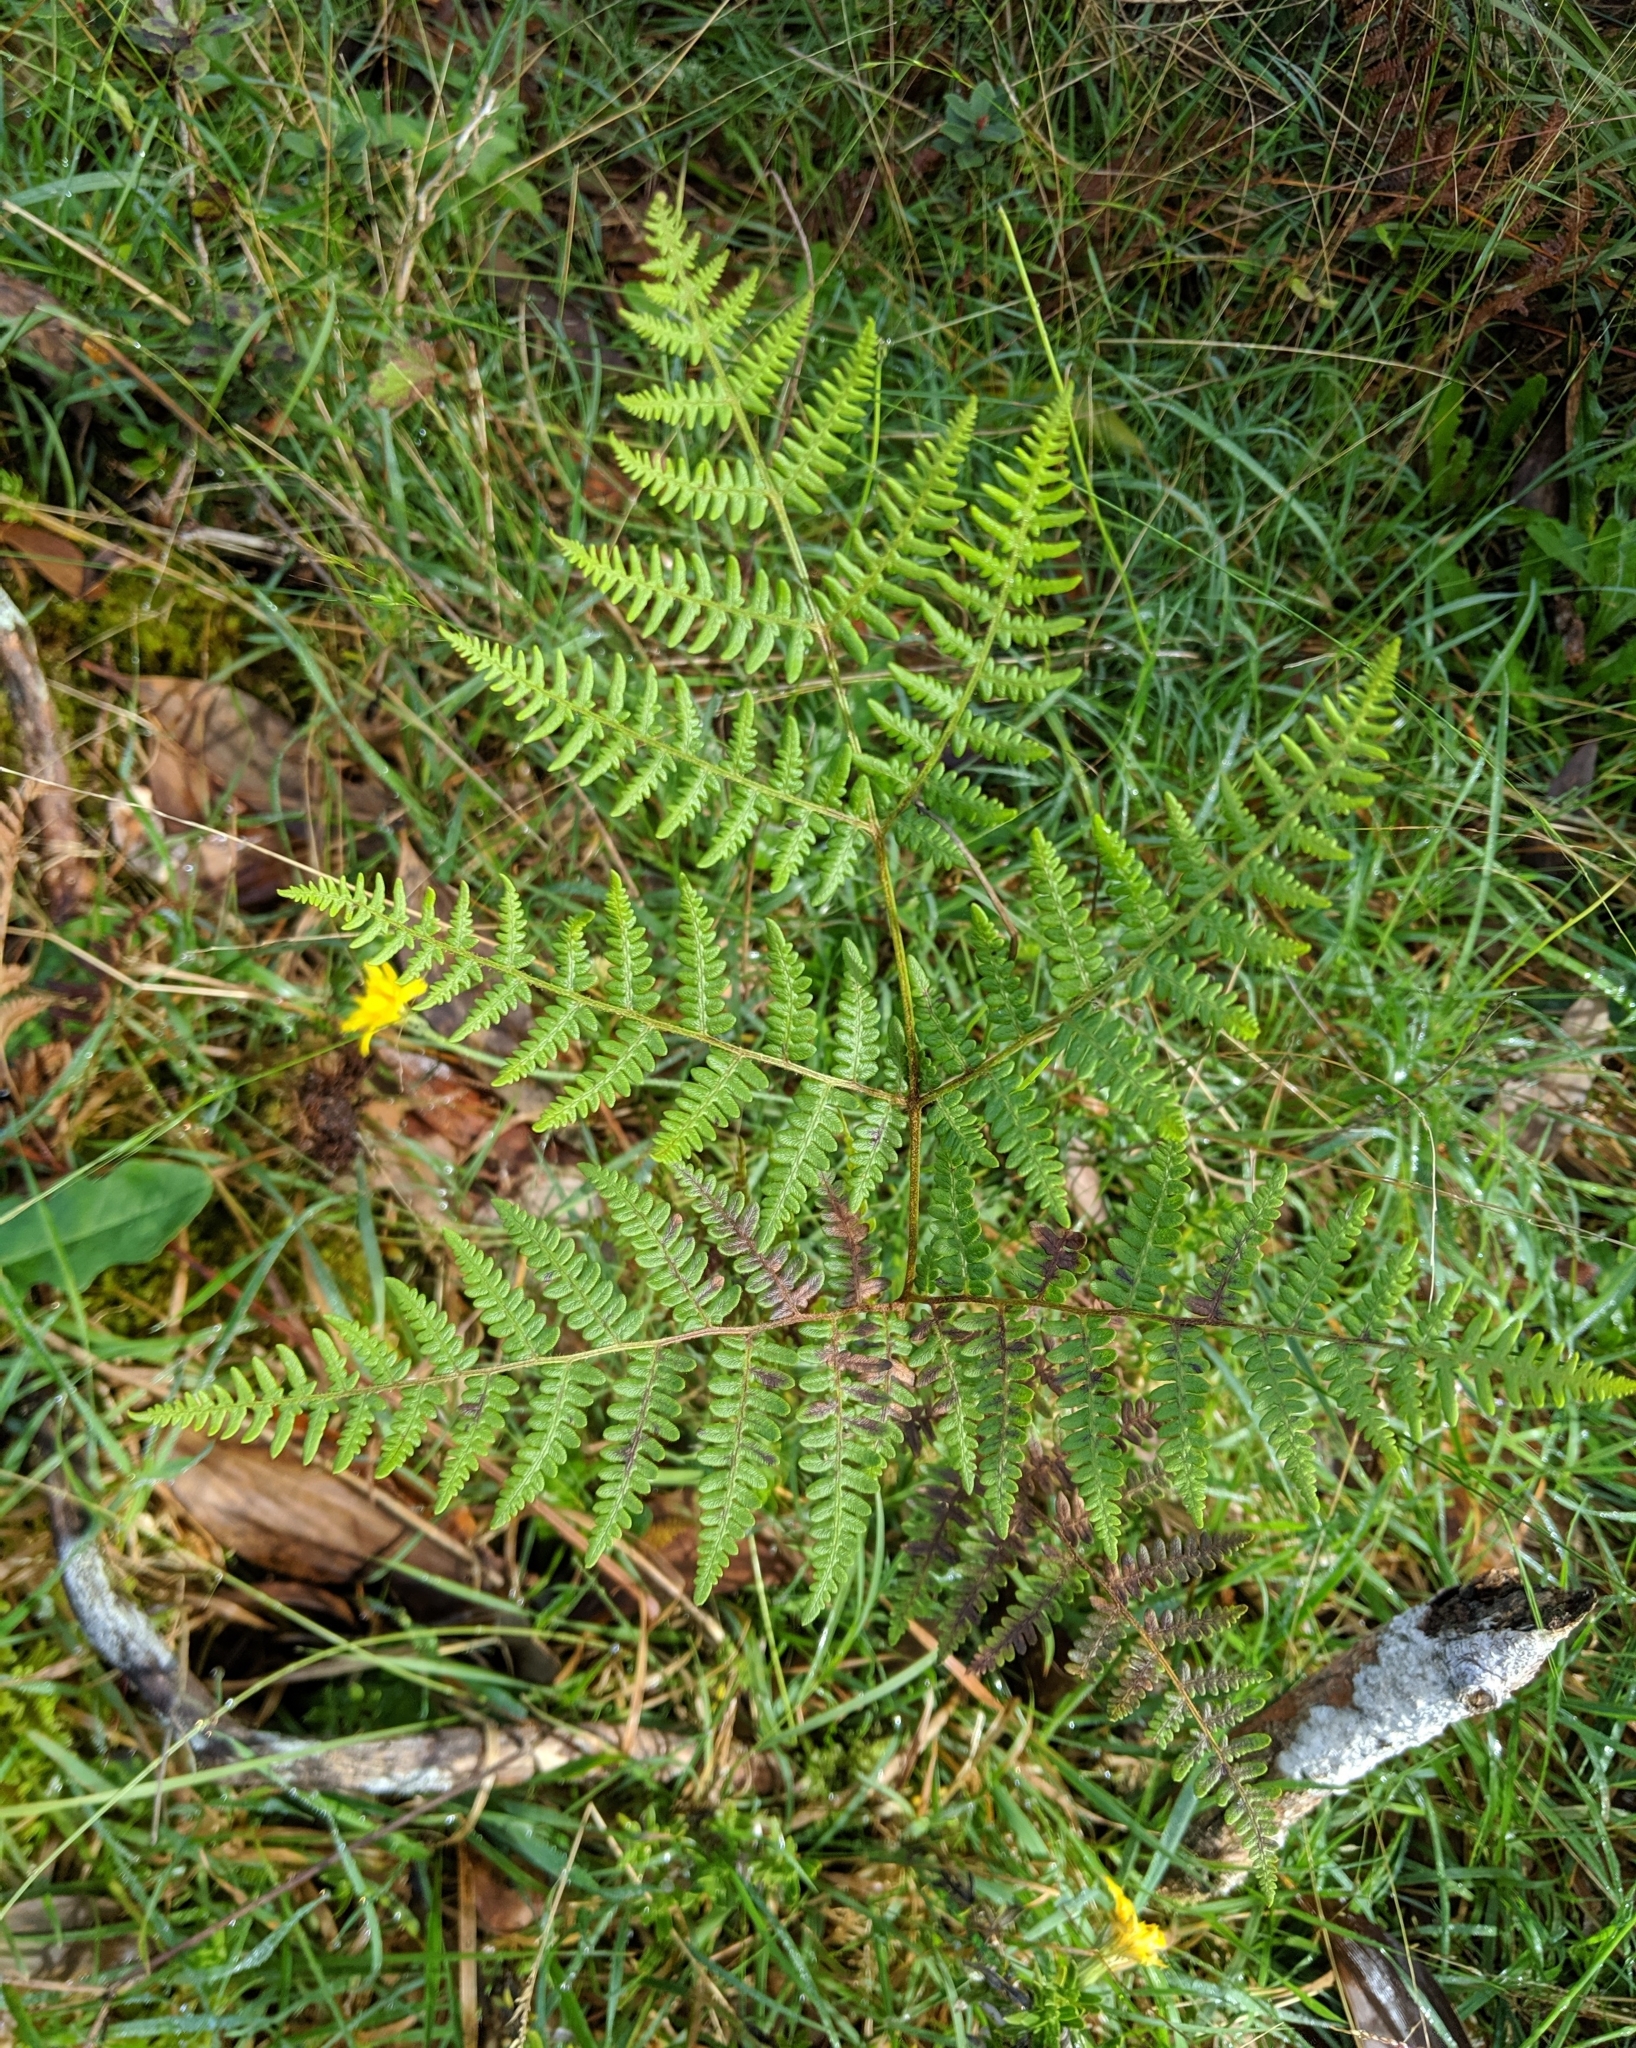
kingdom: Plantae
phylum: Tracheophyta
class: Polypodiopsida
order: Polypodiales
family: Dennstaedtiaceae
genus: Pteridium
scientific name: Pteridium aquilinum
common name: Bracken
